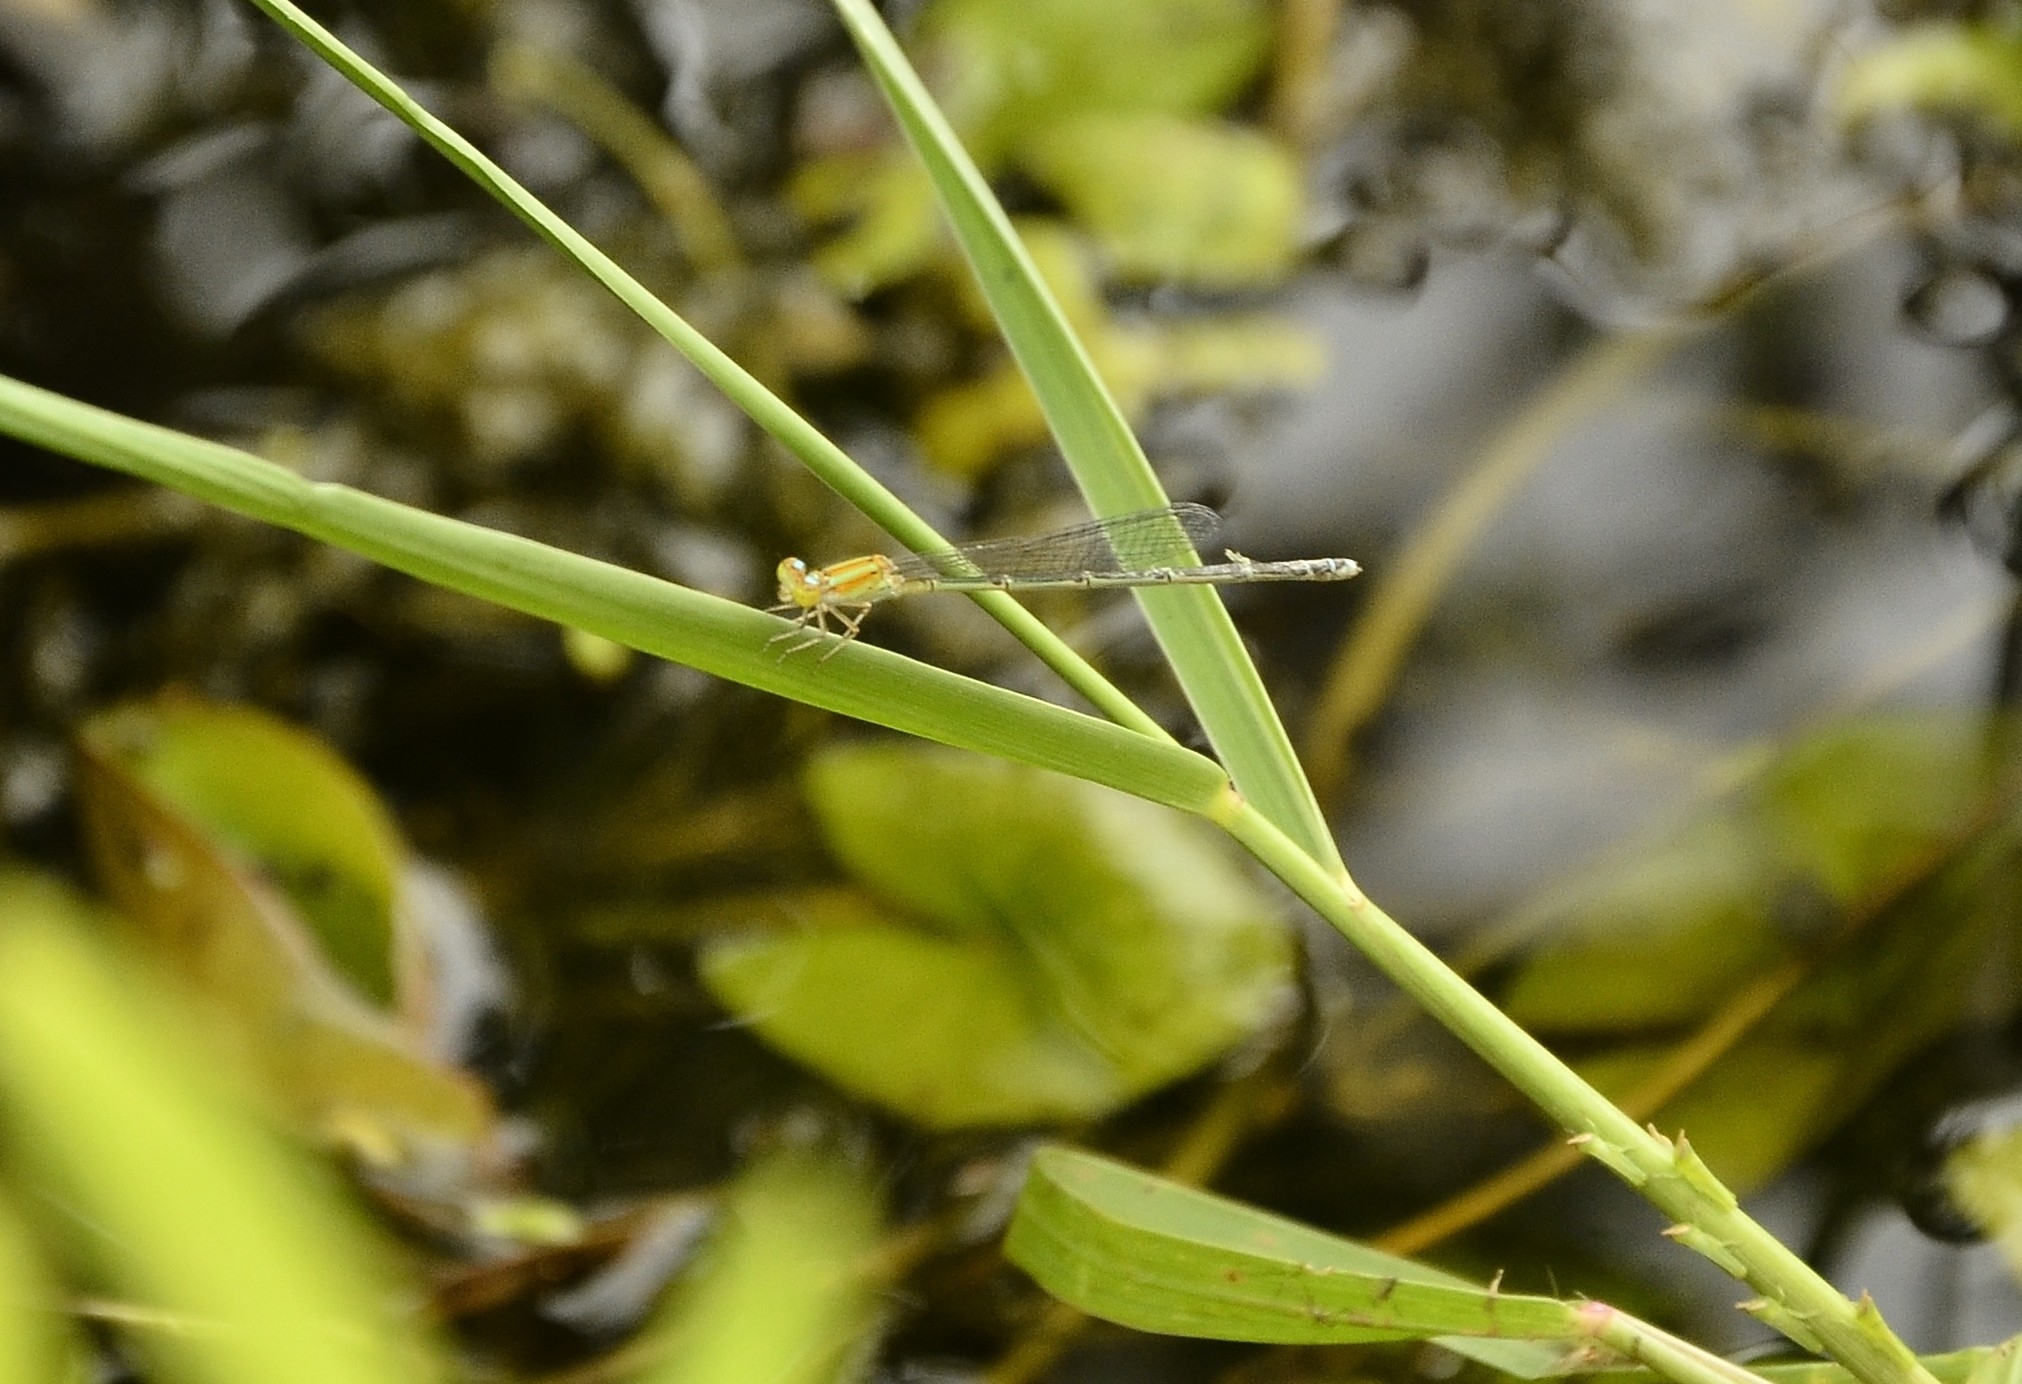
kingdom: Animalia
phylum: Arthropoda
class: Insecta
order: Odonata
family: Coenagrionidae
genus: Pseudagrion
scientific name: Pseudagrion microcephalum
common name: Blue riverdamsel
